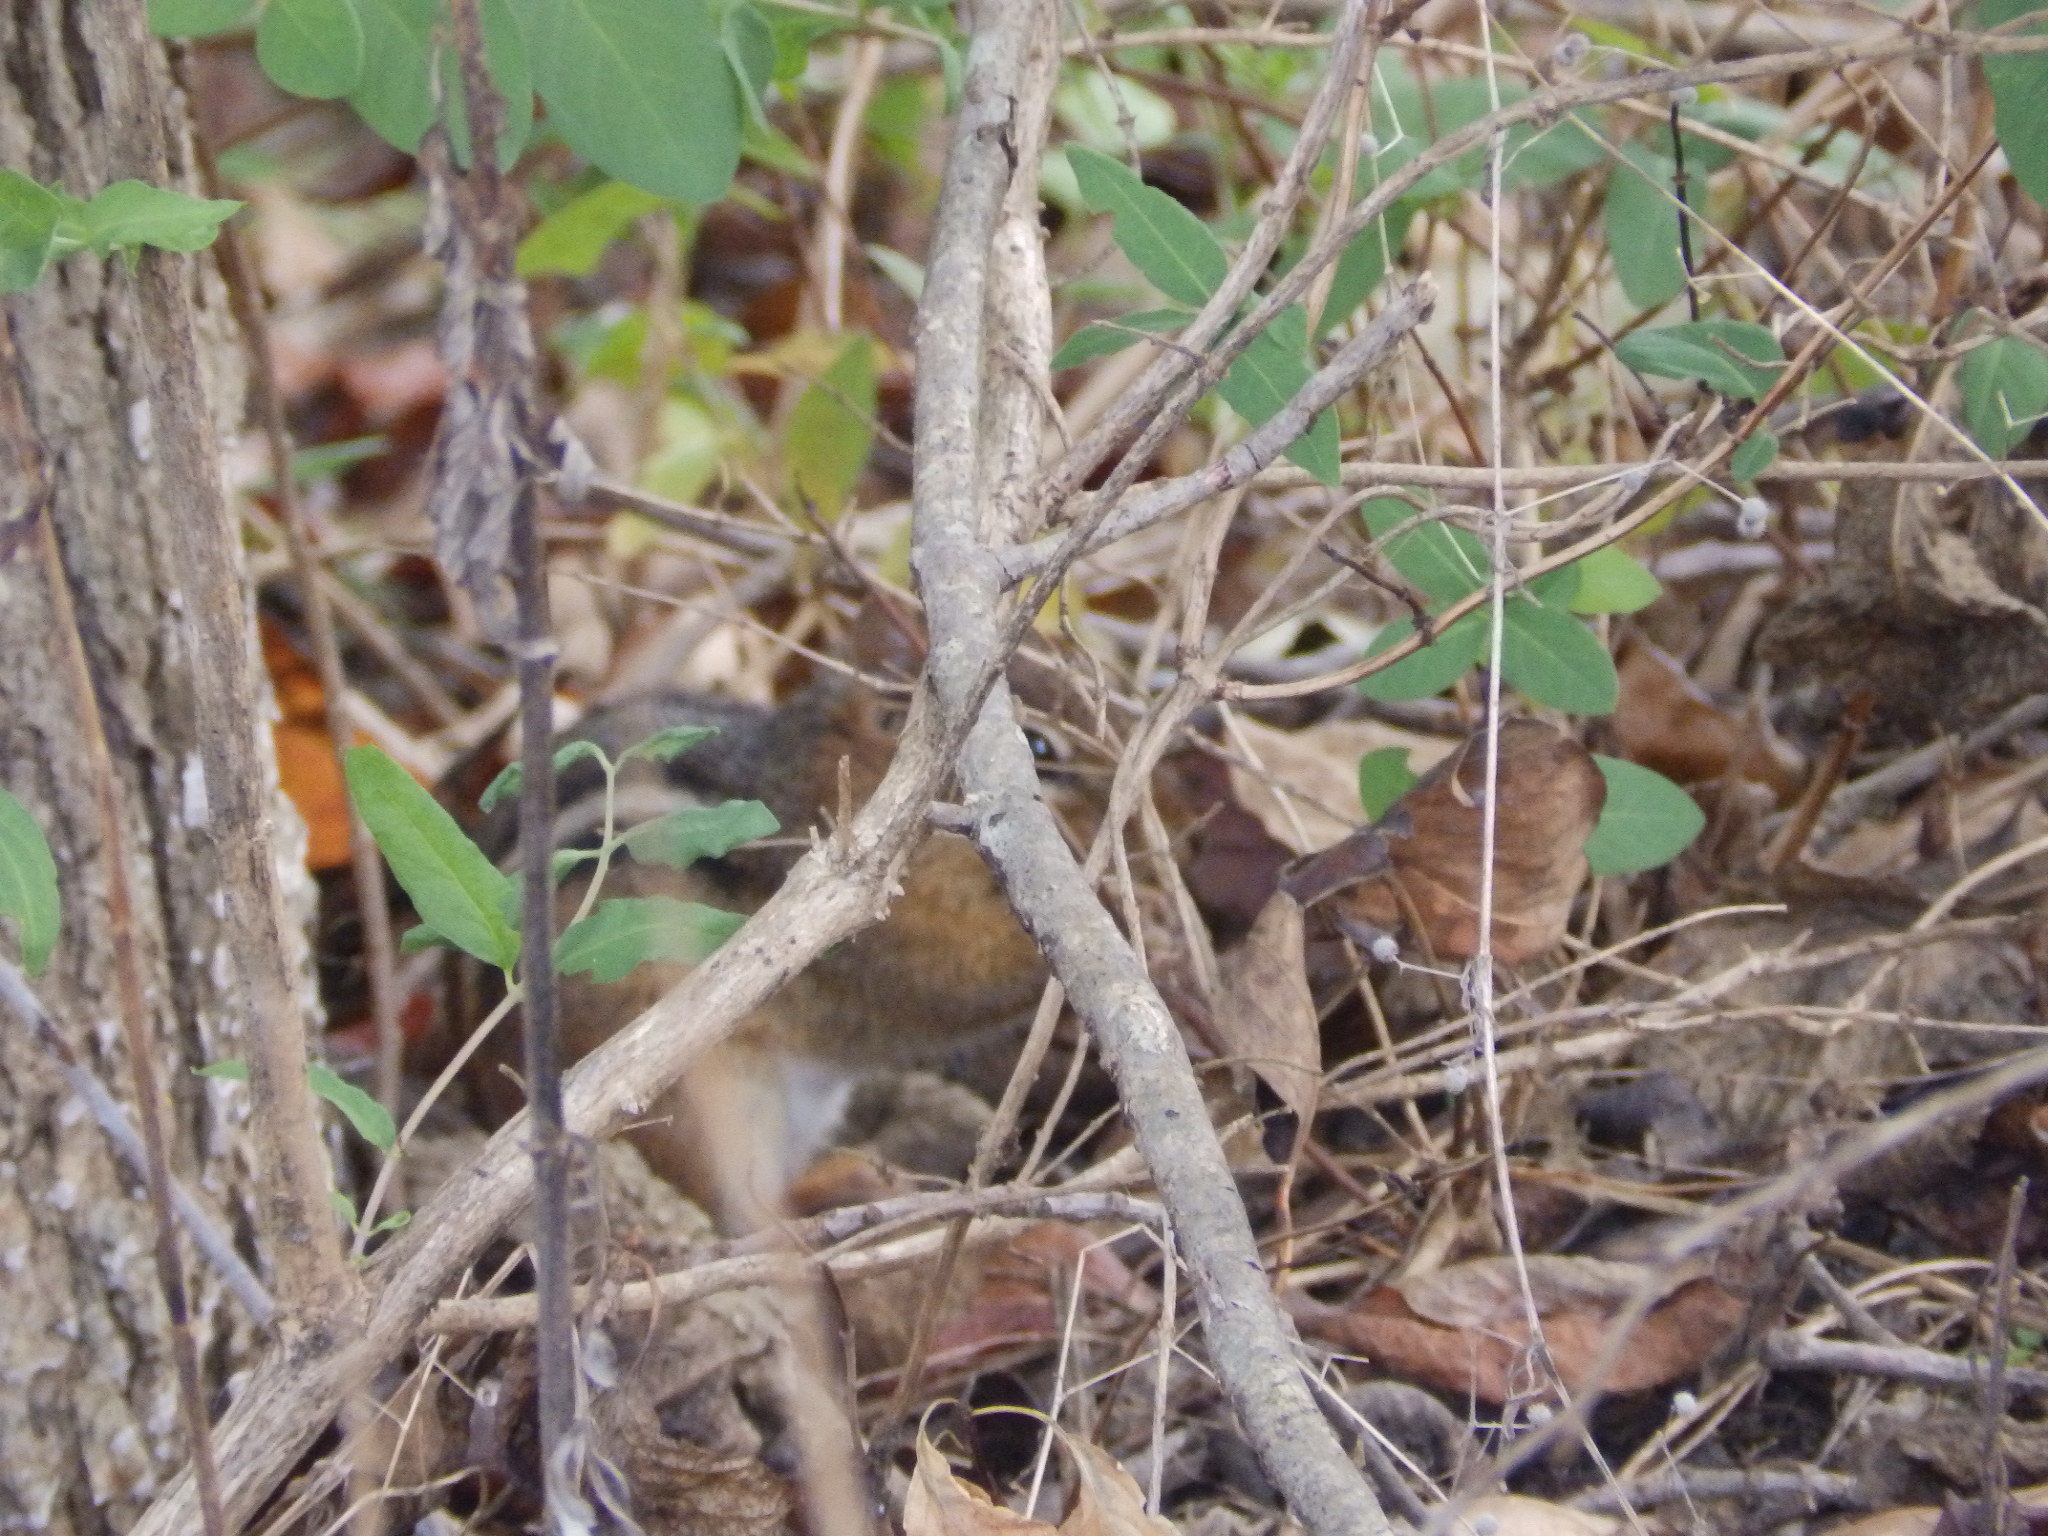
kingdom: Animalia
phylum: Chordata
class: Mammalia
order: Rodentia
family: Sciuridae
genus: Tamias
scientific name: Tamias striatus
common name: Eastern chipmunk
